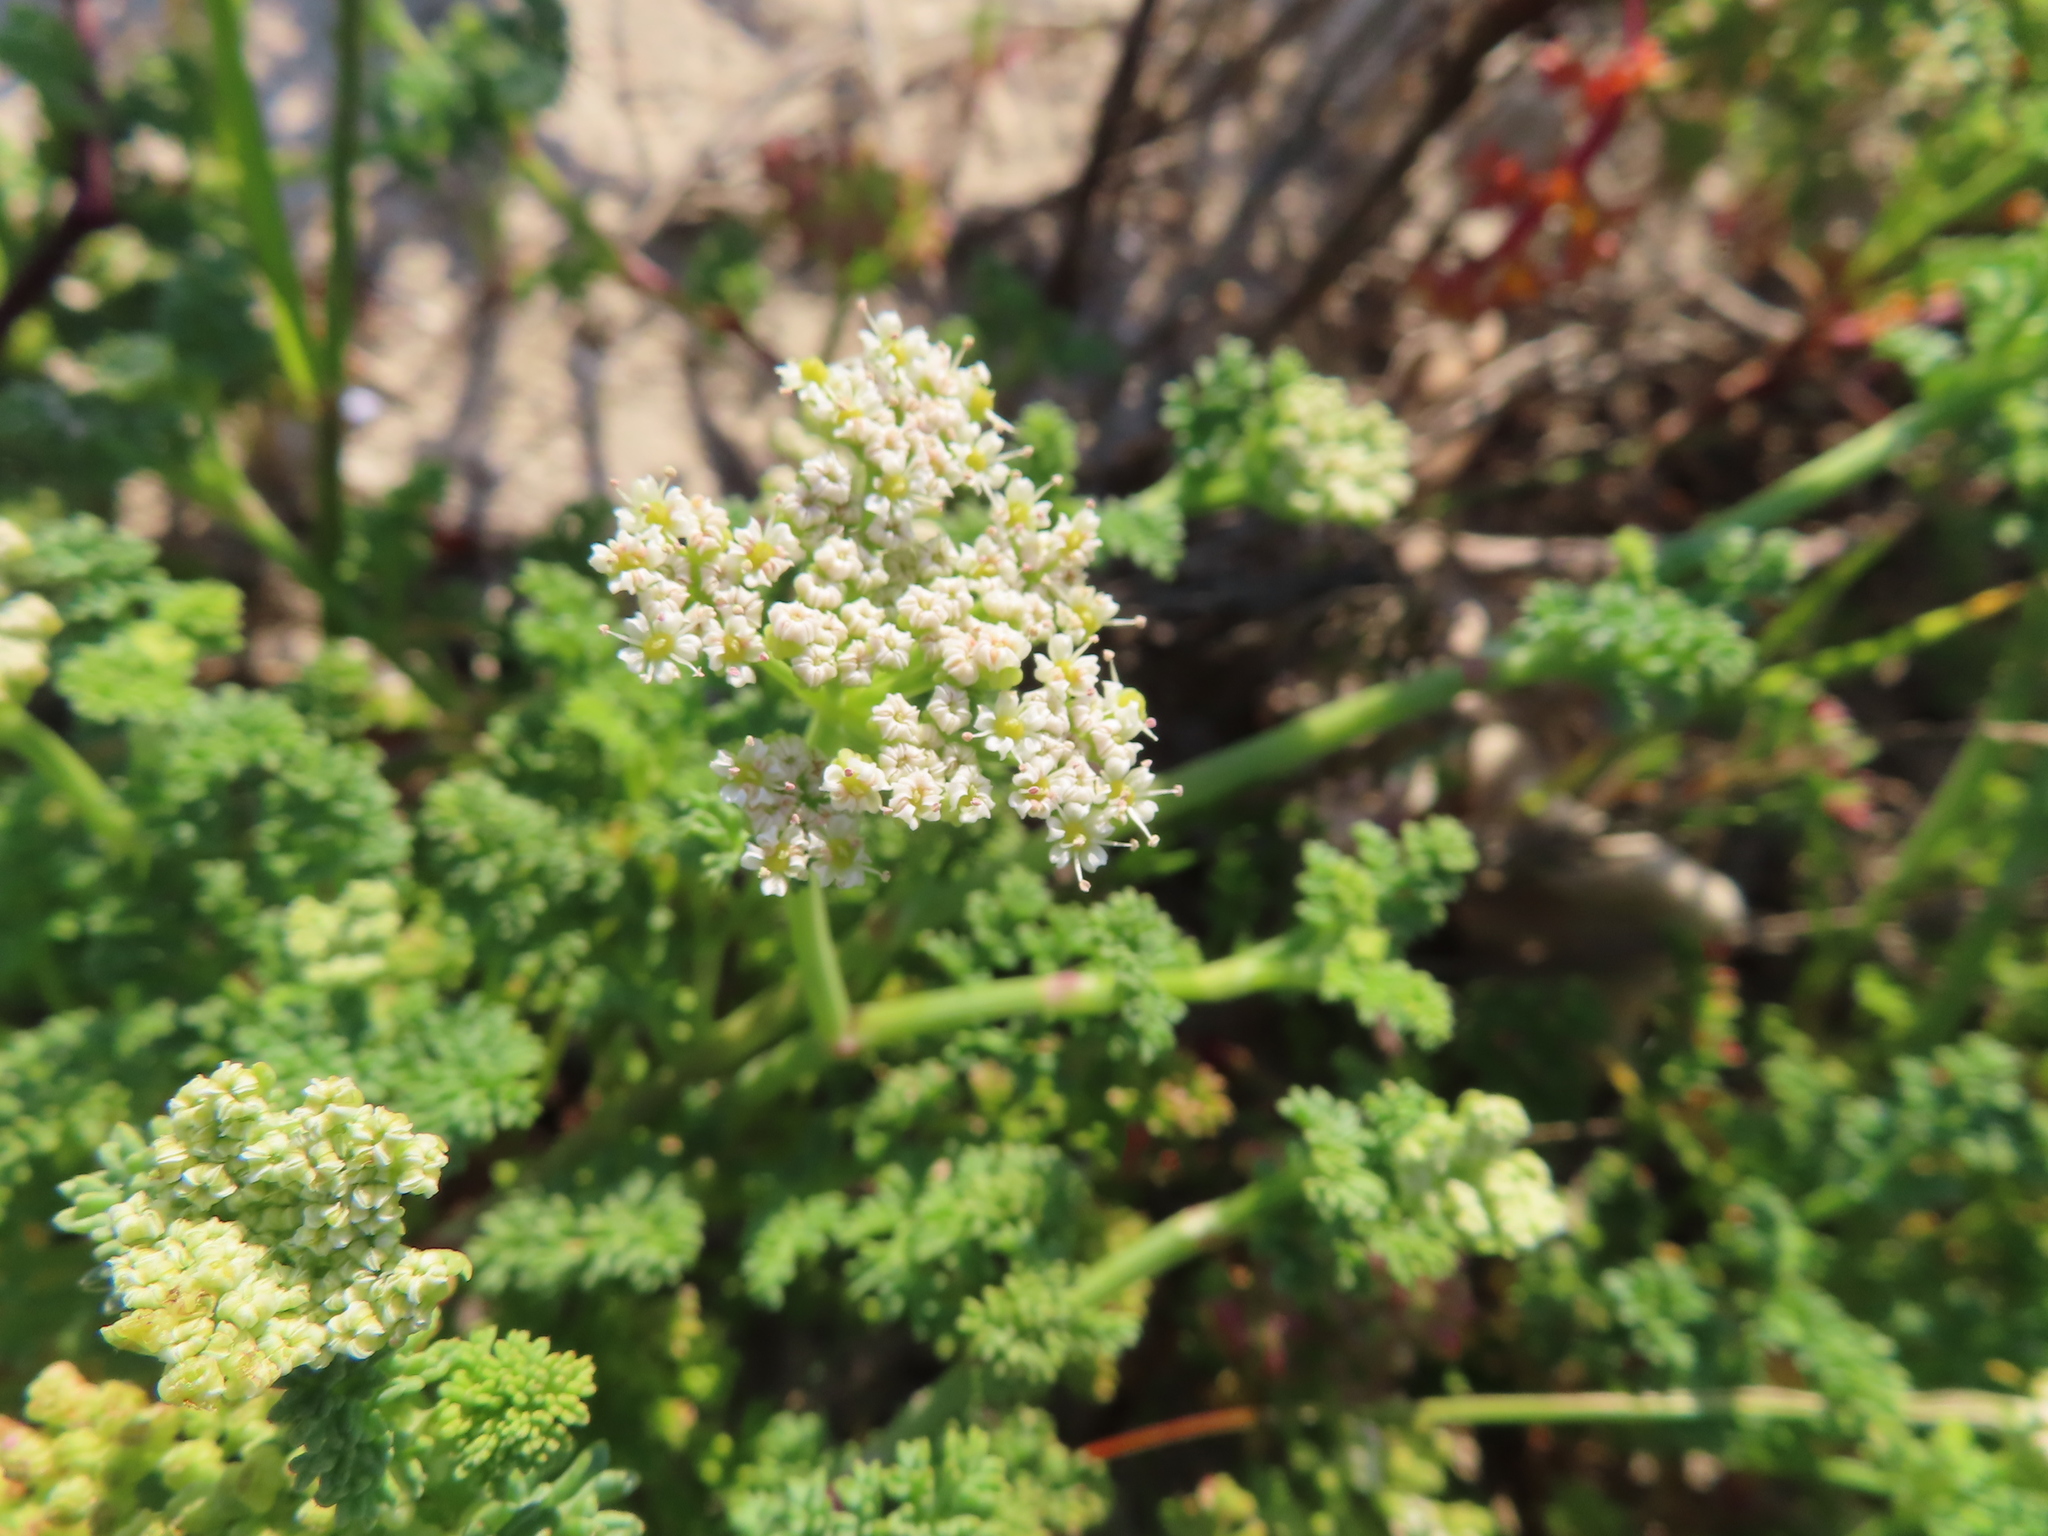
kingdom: Plantae
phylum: Tracheophyta
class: Magnoliopsida
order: Apiales
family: Apiaceae
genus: Dasispermum
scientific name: Dasispermum suffruticosum
